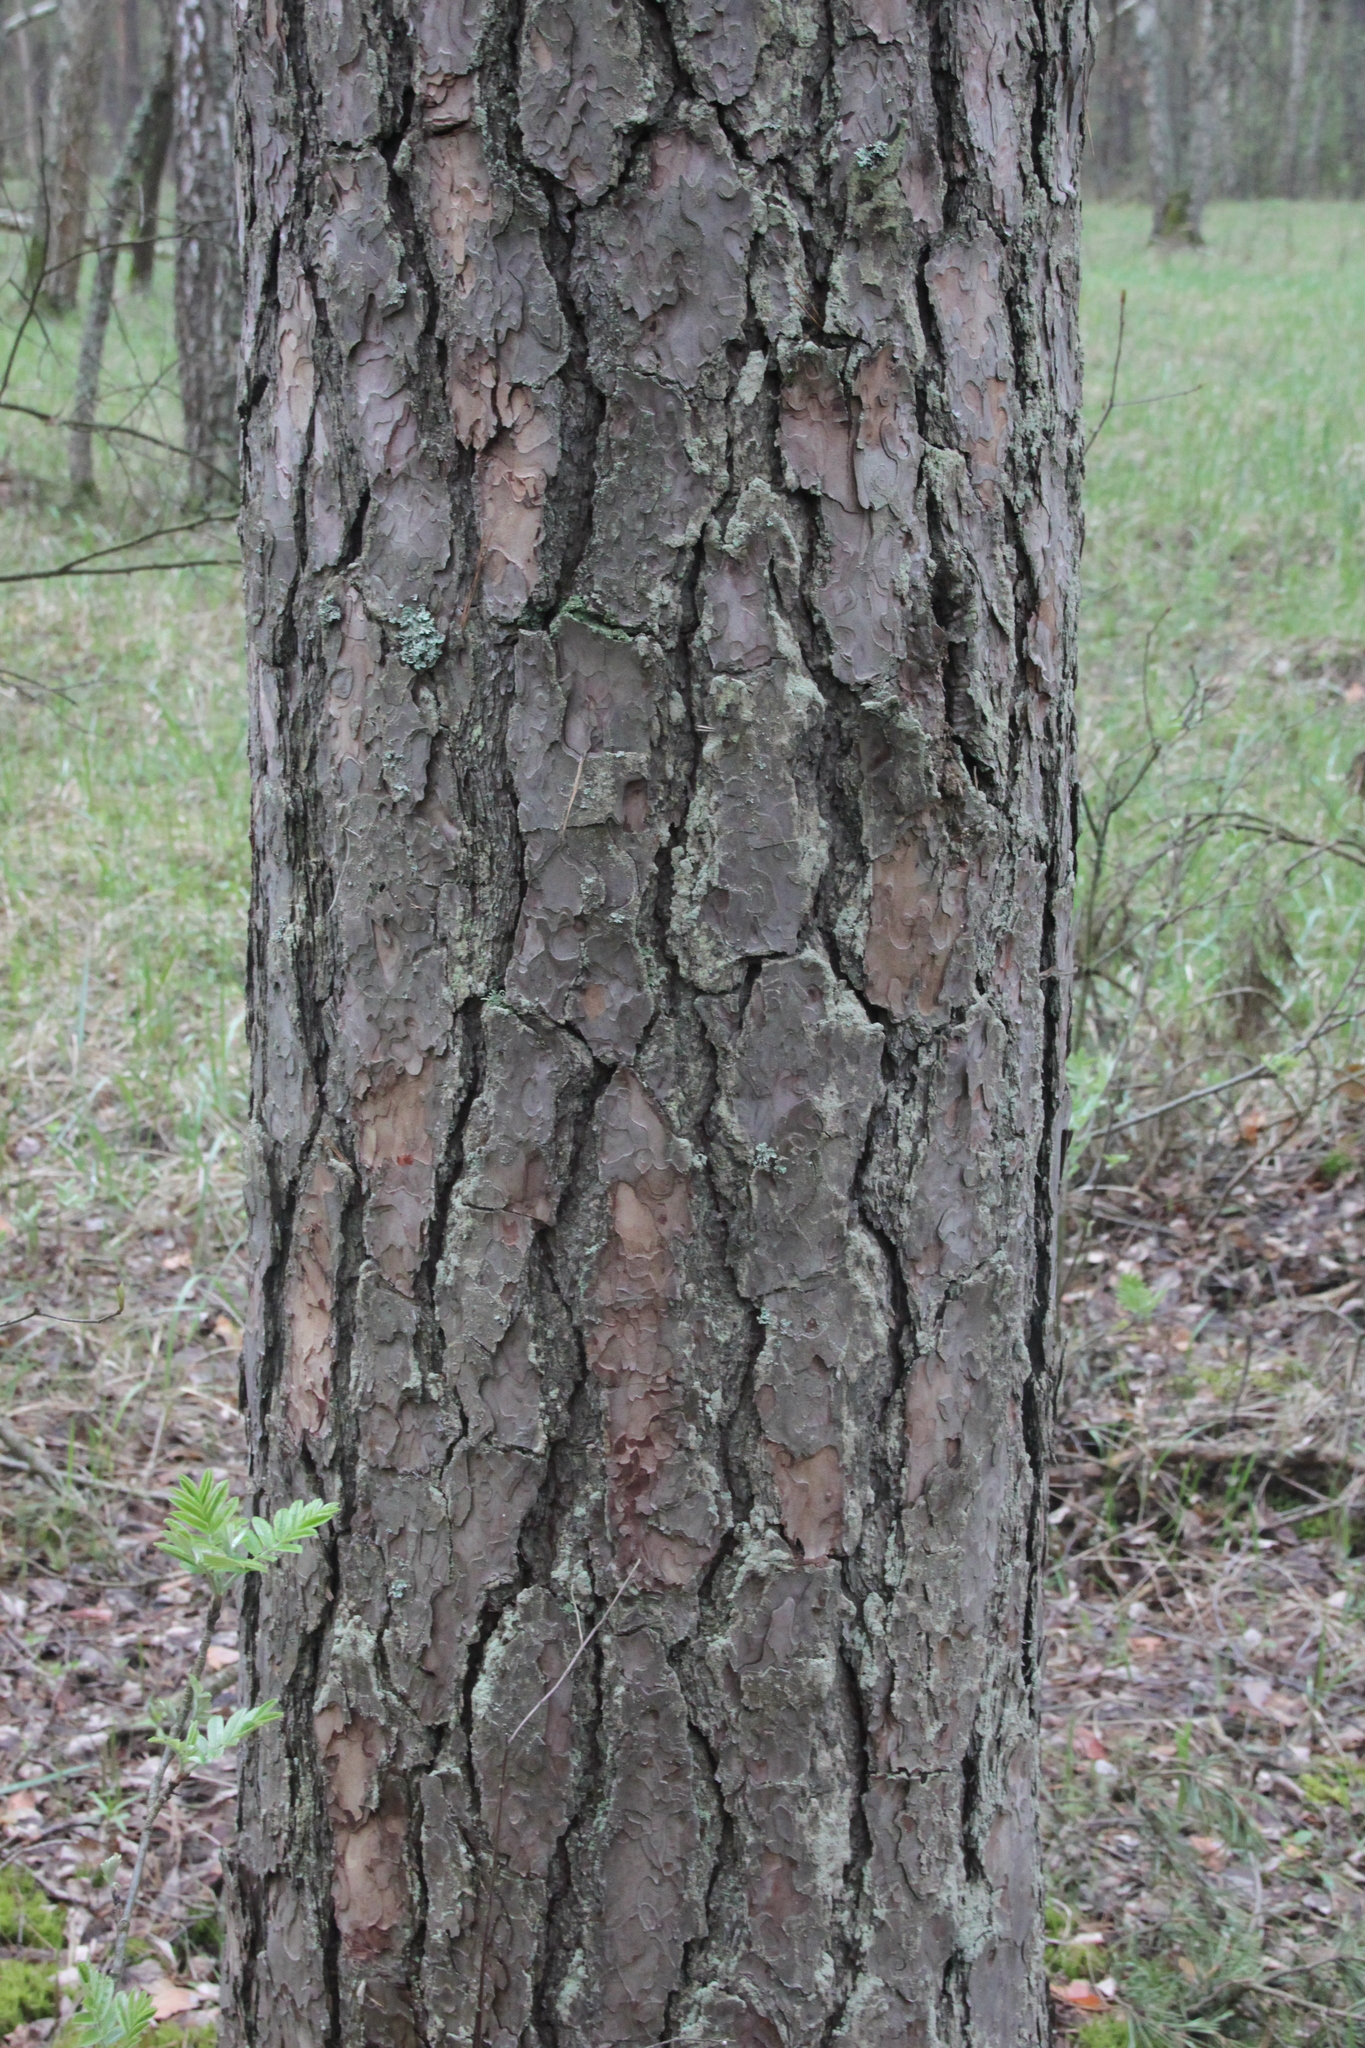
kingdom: Plantae
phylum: Tracheophyta
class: Pinopsida
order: Pinales
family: Pinaceae
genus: Pinus
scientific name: Pinus sylvestris
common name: Scots pine
